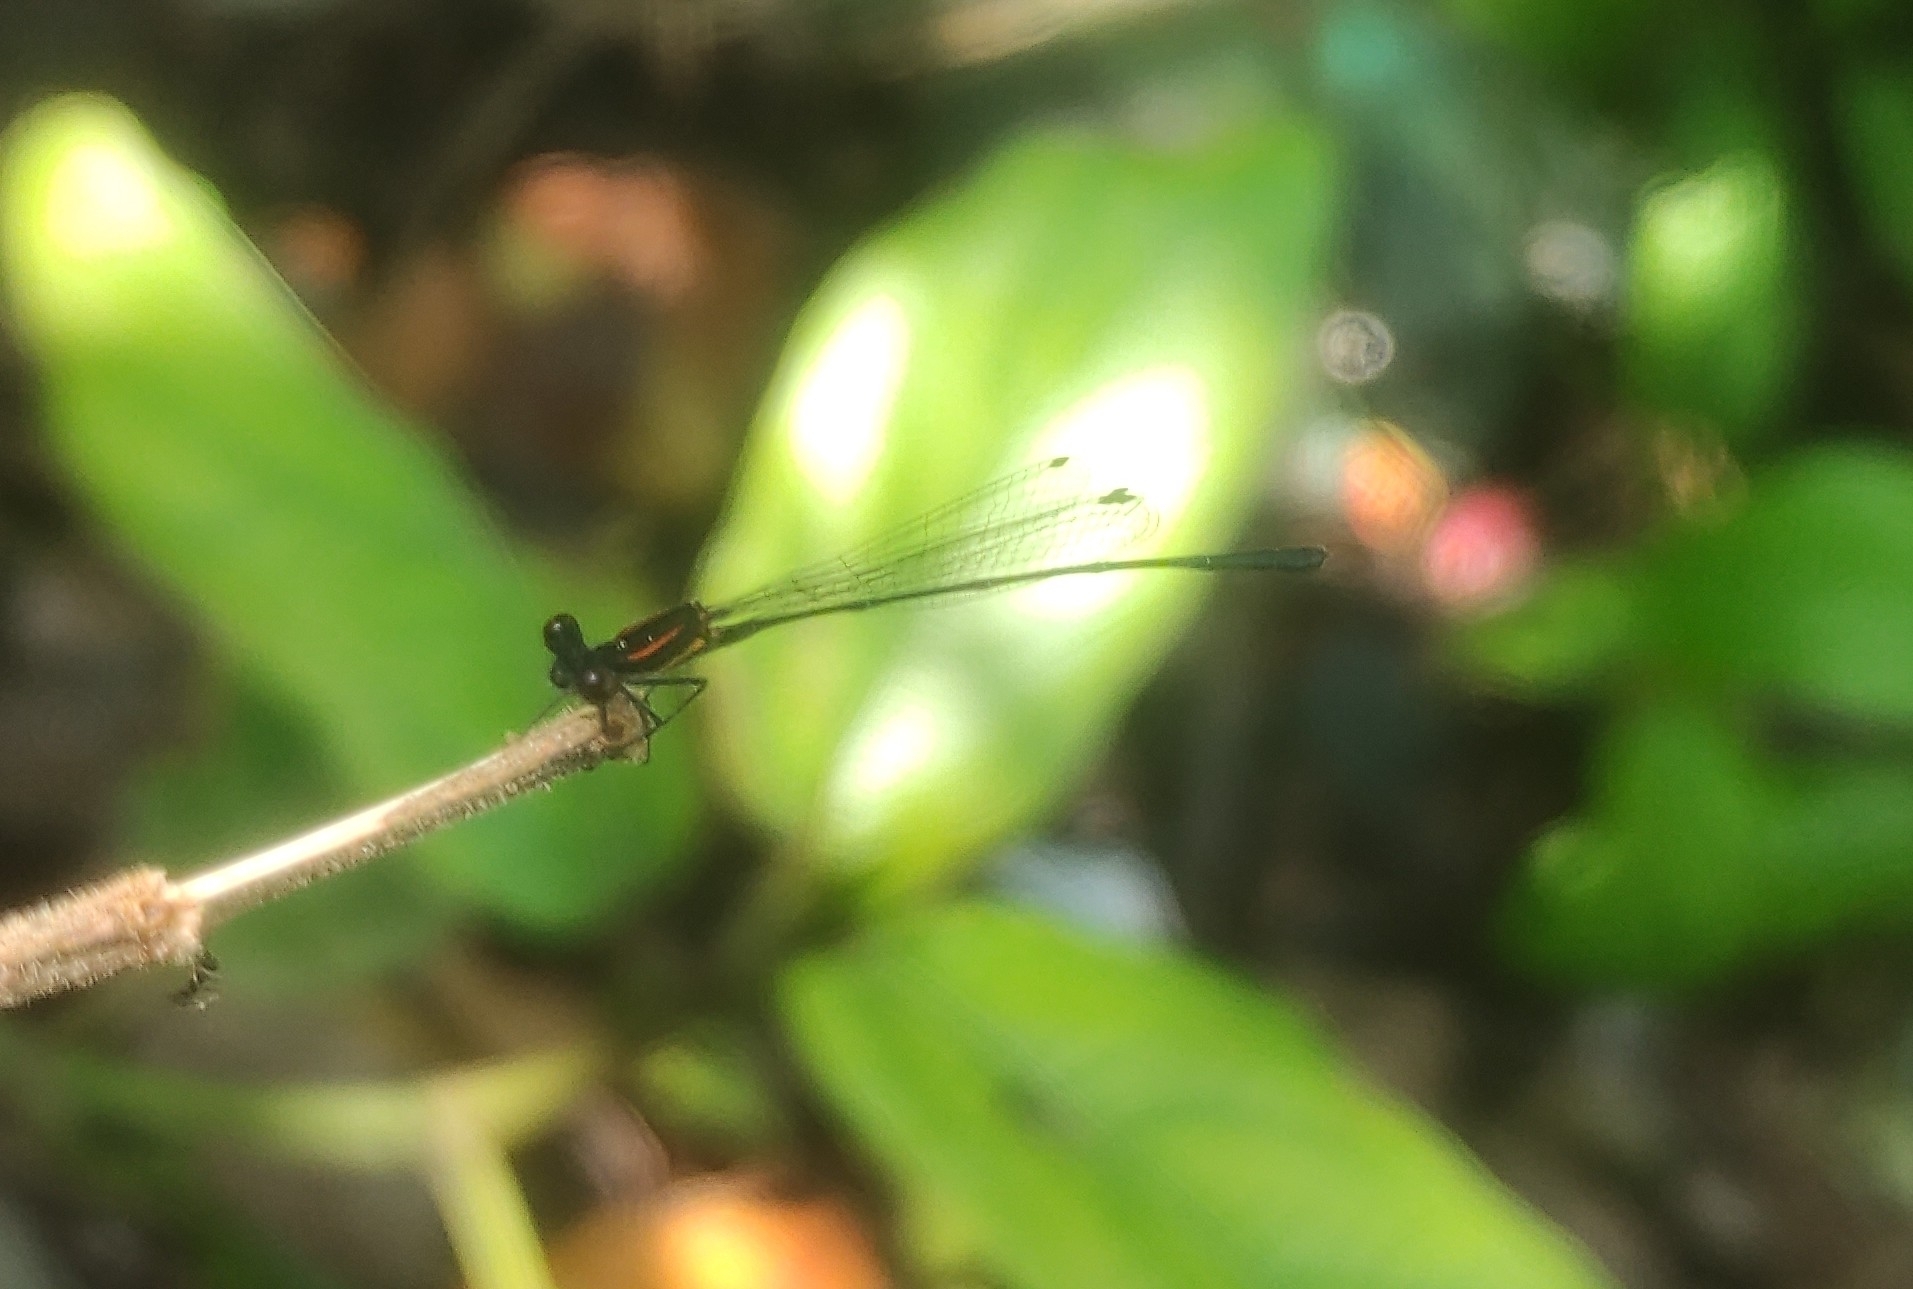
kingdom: Animalia
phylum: Arthropoda
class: Insecta
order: Odonata
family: Platycnemididae
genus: Prodasineura
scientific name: Prodasineura verticalis
